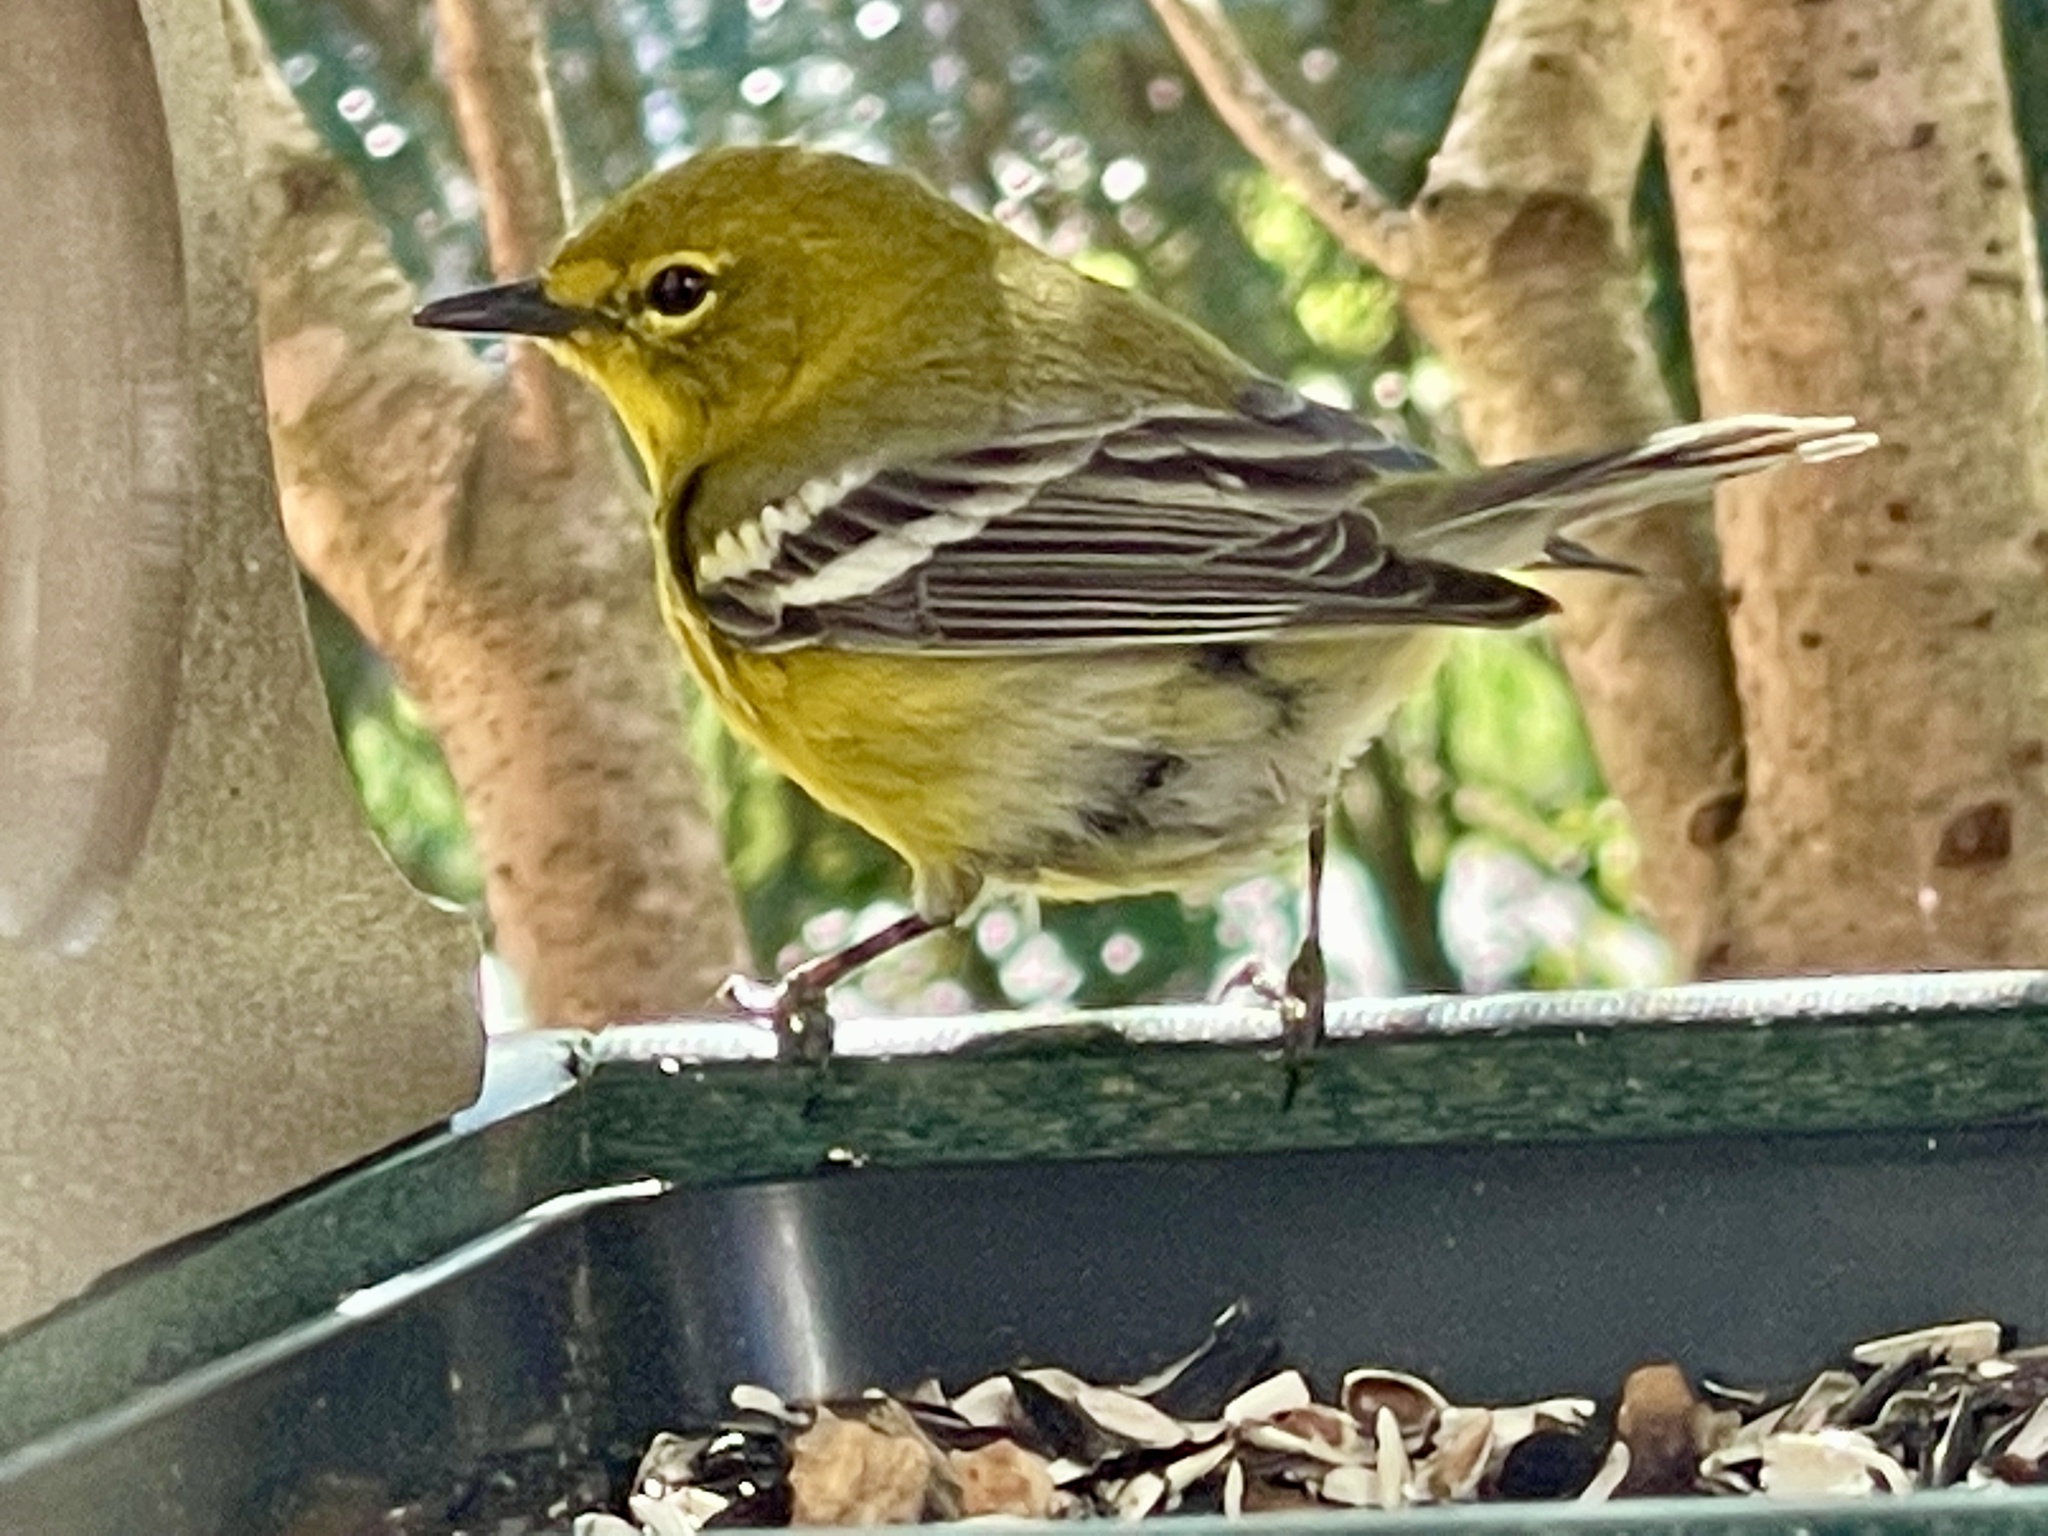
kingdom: Animalia
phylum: Chordata
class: Aves
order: Passeriformes
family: Parulidae
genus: Setophaga
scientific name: Setophaga pinus
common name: Pine warbler
